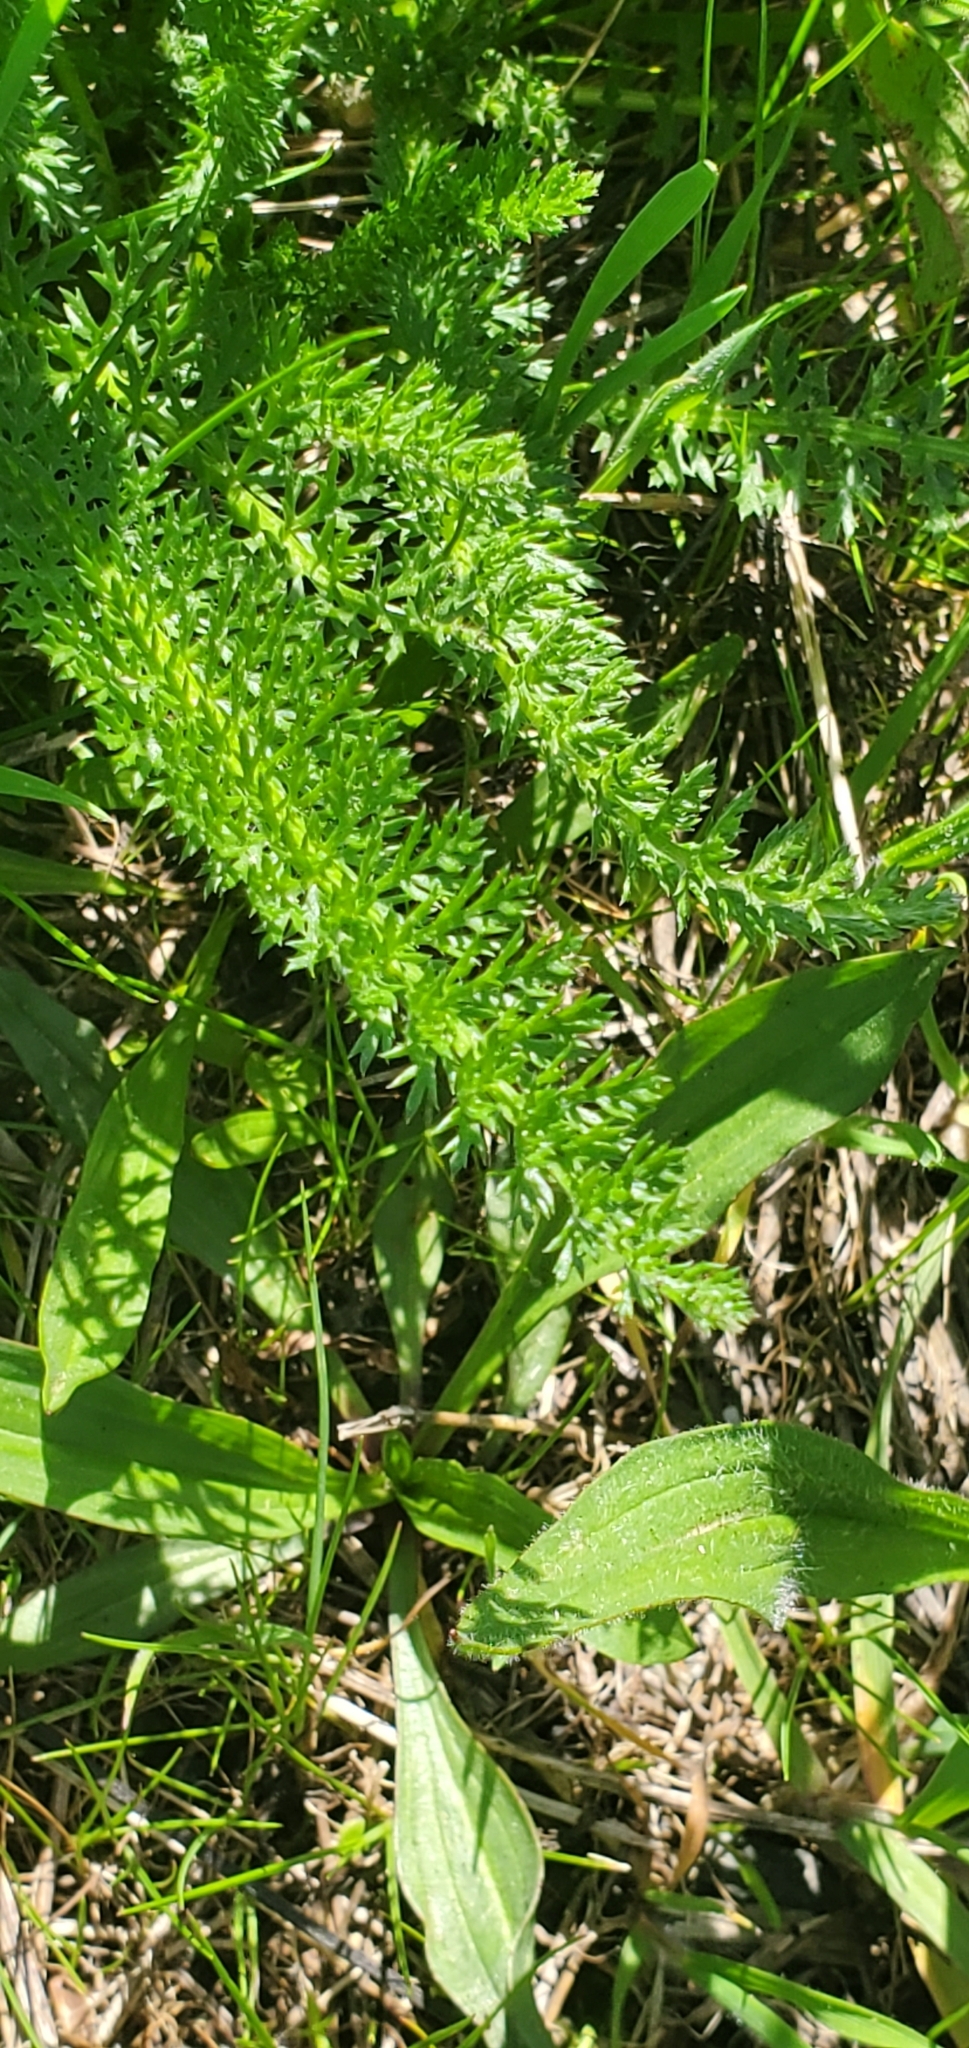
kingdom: Plantae
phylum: Tracheophyta
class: Magnoliopsida
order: Asterales
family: Asteraceae
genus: Achillea
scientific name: Achillea millefolium
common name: Yarrow
